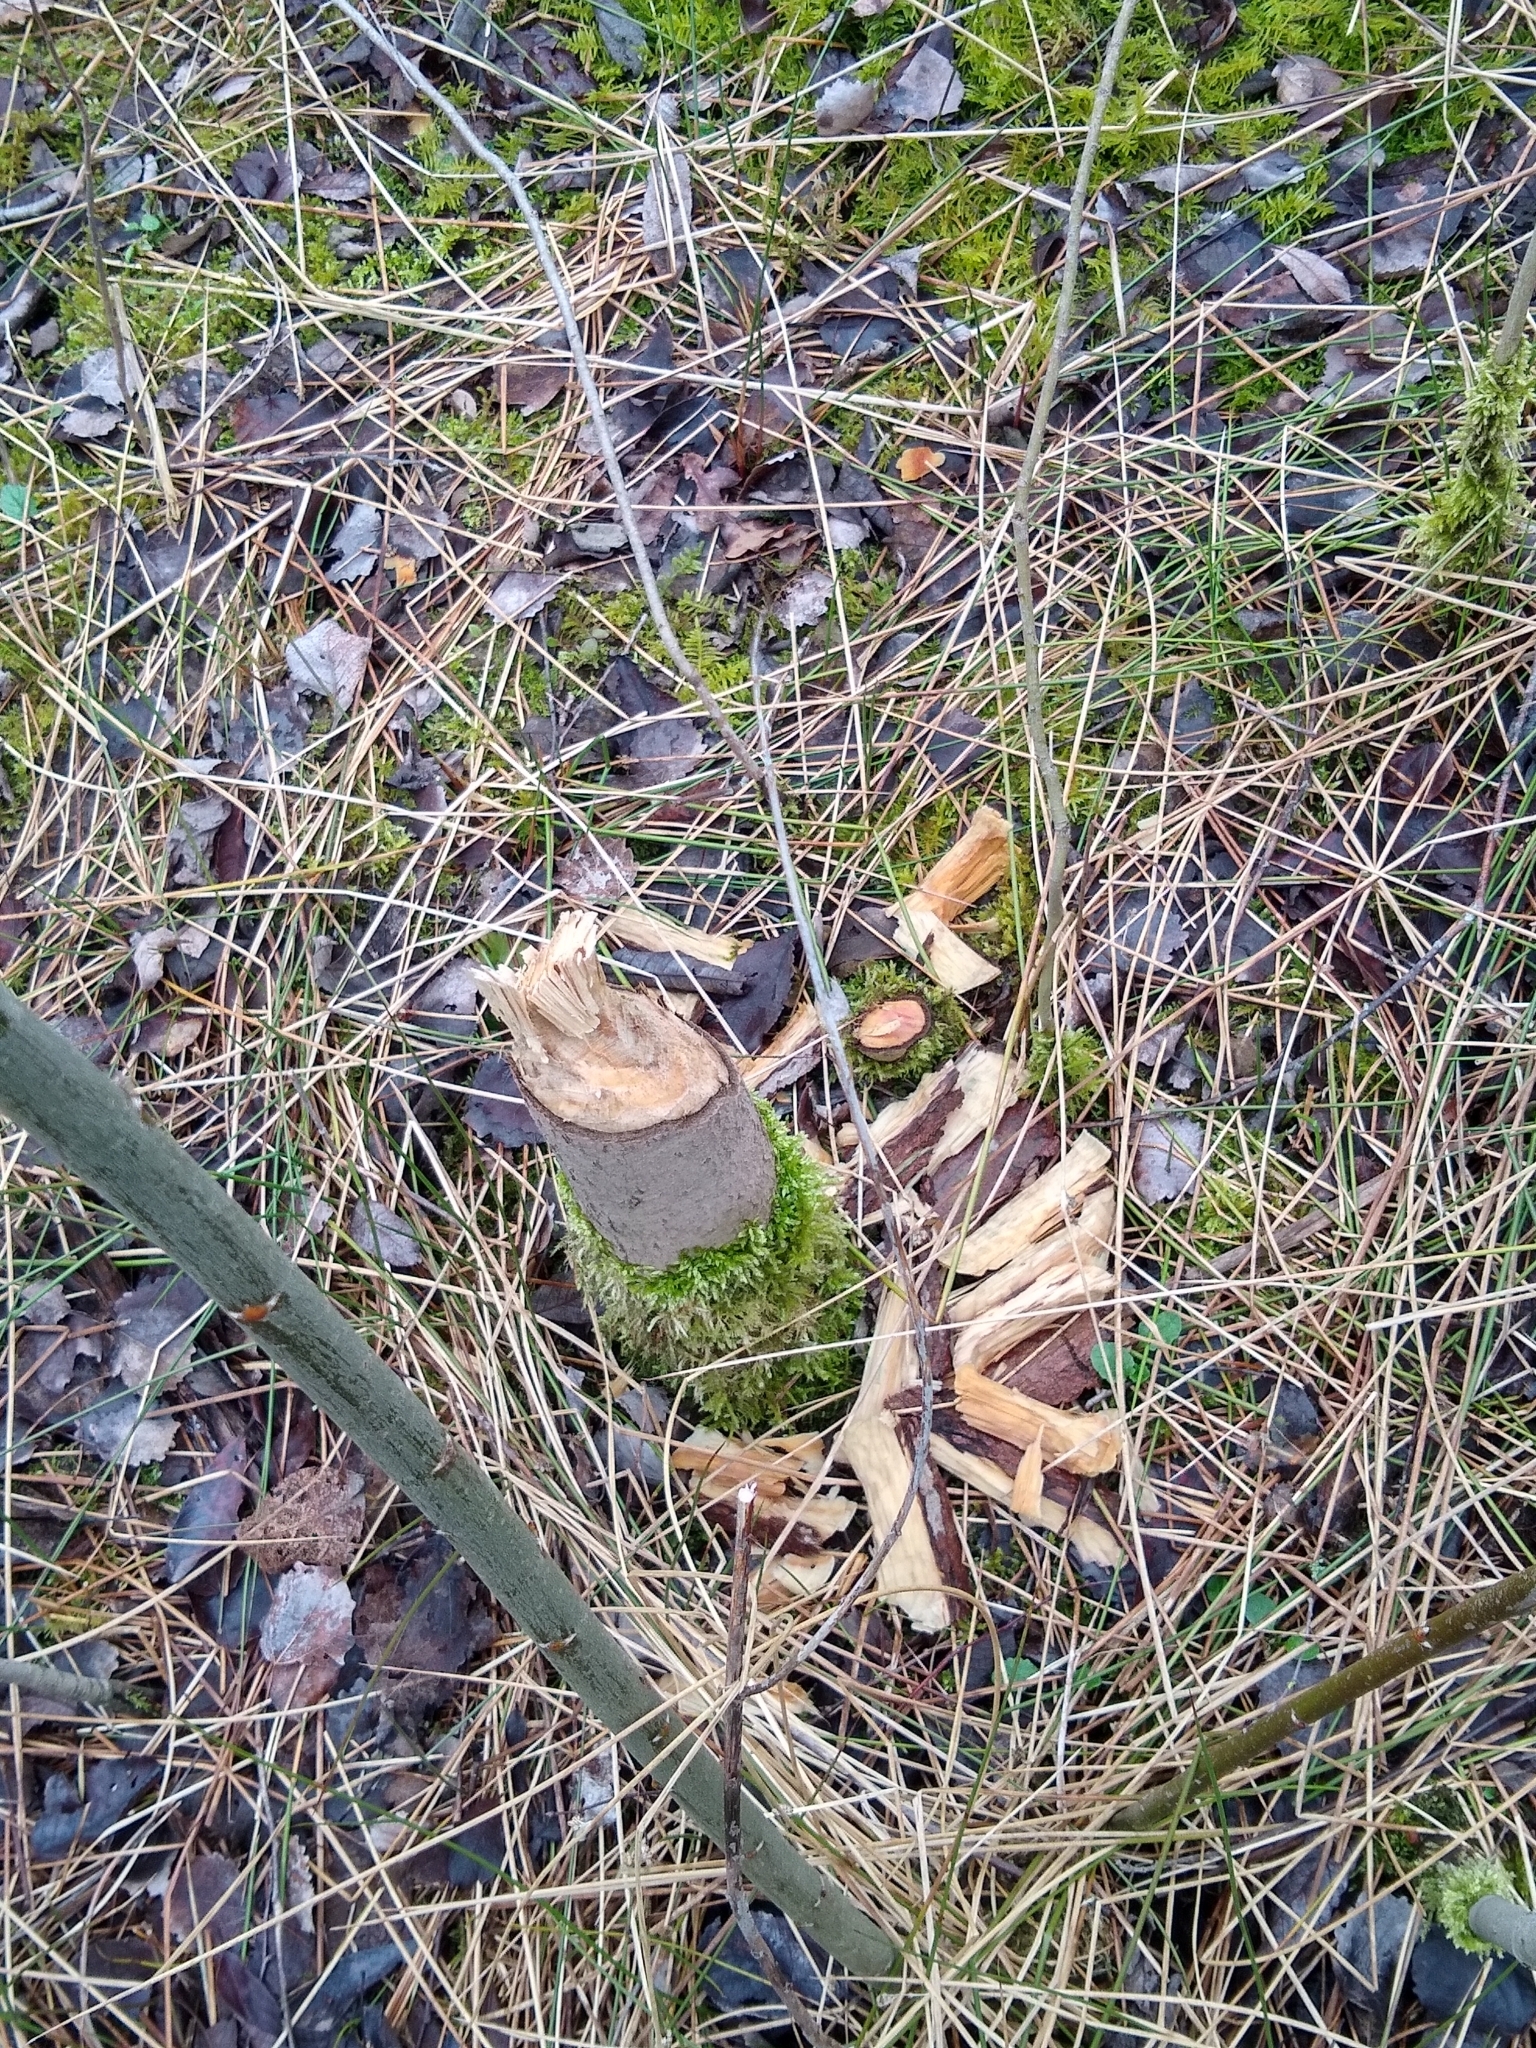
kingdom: Animalia
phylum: Chordata
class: Mammalia
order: Rodentia
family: Castoridae
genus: Castor
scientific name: Castor fiber
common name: Eurasian beaver
